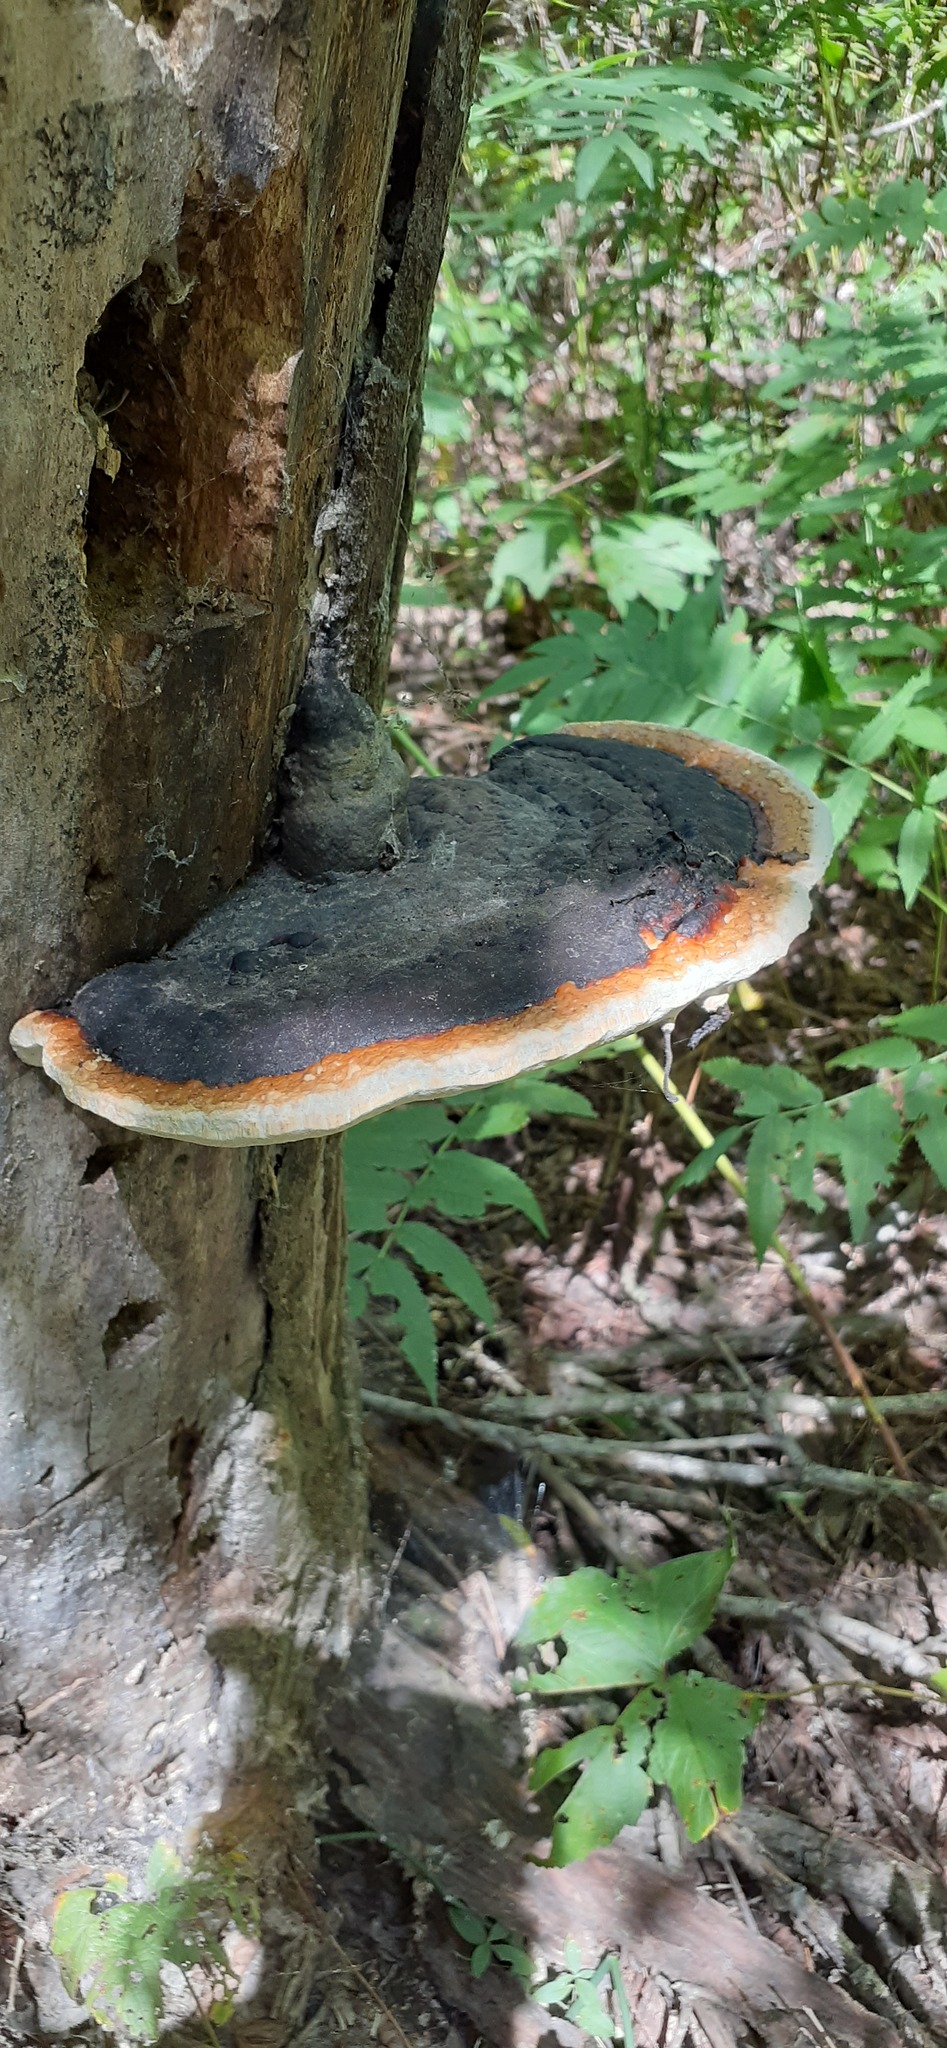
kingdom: Fungi
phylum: Basidiomycota
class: Agaricomycetes
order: Polyporales
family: Fomitopsidaceae
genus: Fomitopsis
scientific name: Fomitopsis pinicola
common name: Red-belted bracket
